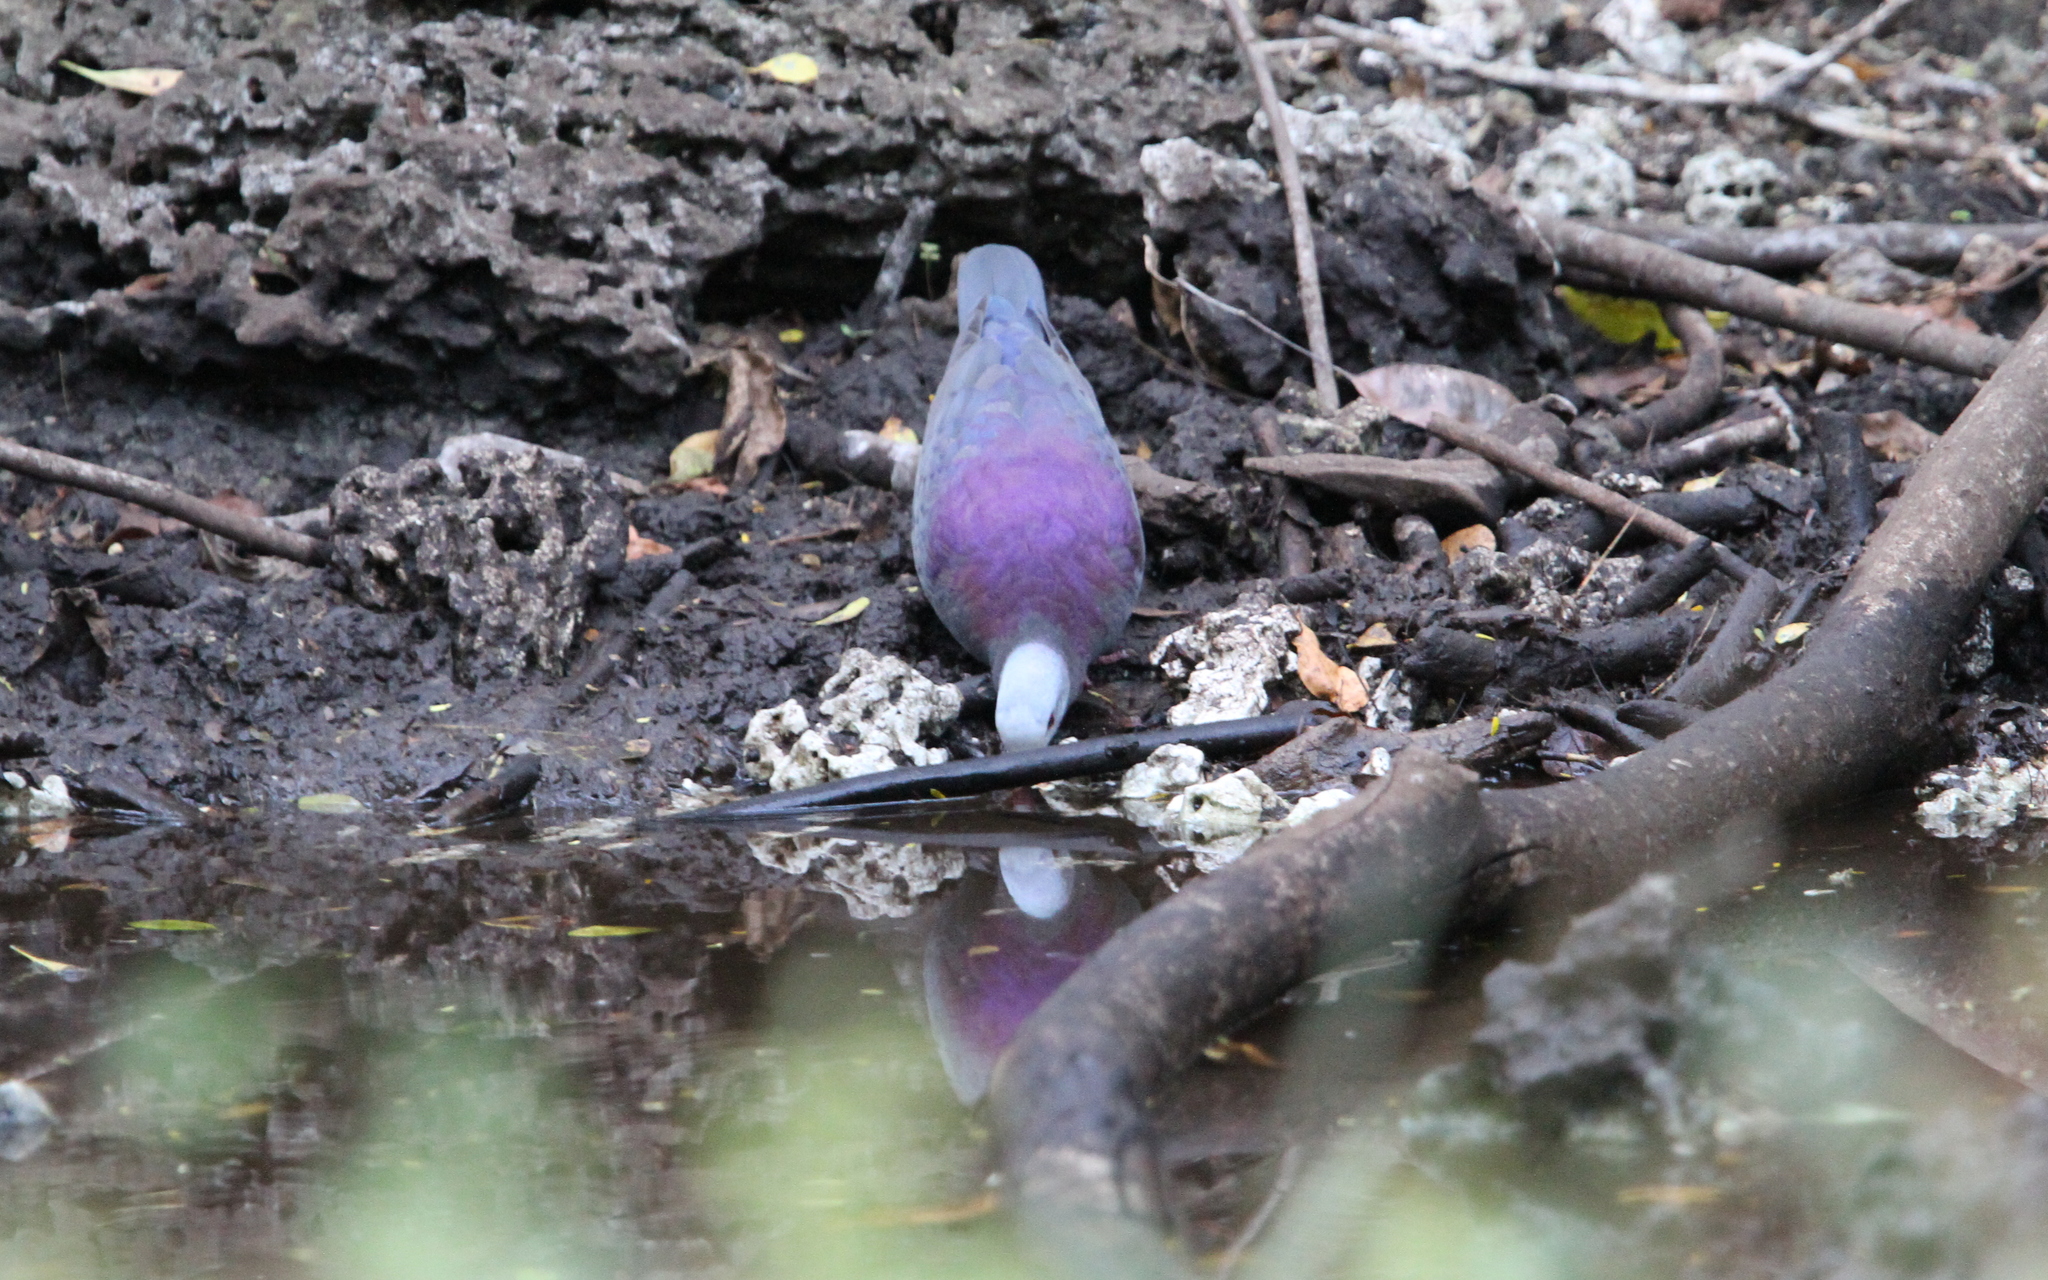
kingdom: Animalia
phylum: Chordata
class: Aves
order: Columbiformes
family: Columbidae
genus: Geotrygon
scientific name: Geotrygon caniceps
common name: Gray-fronted quail-dove
